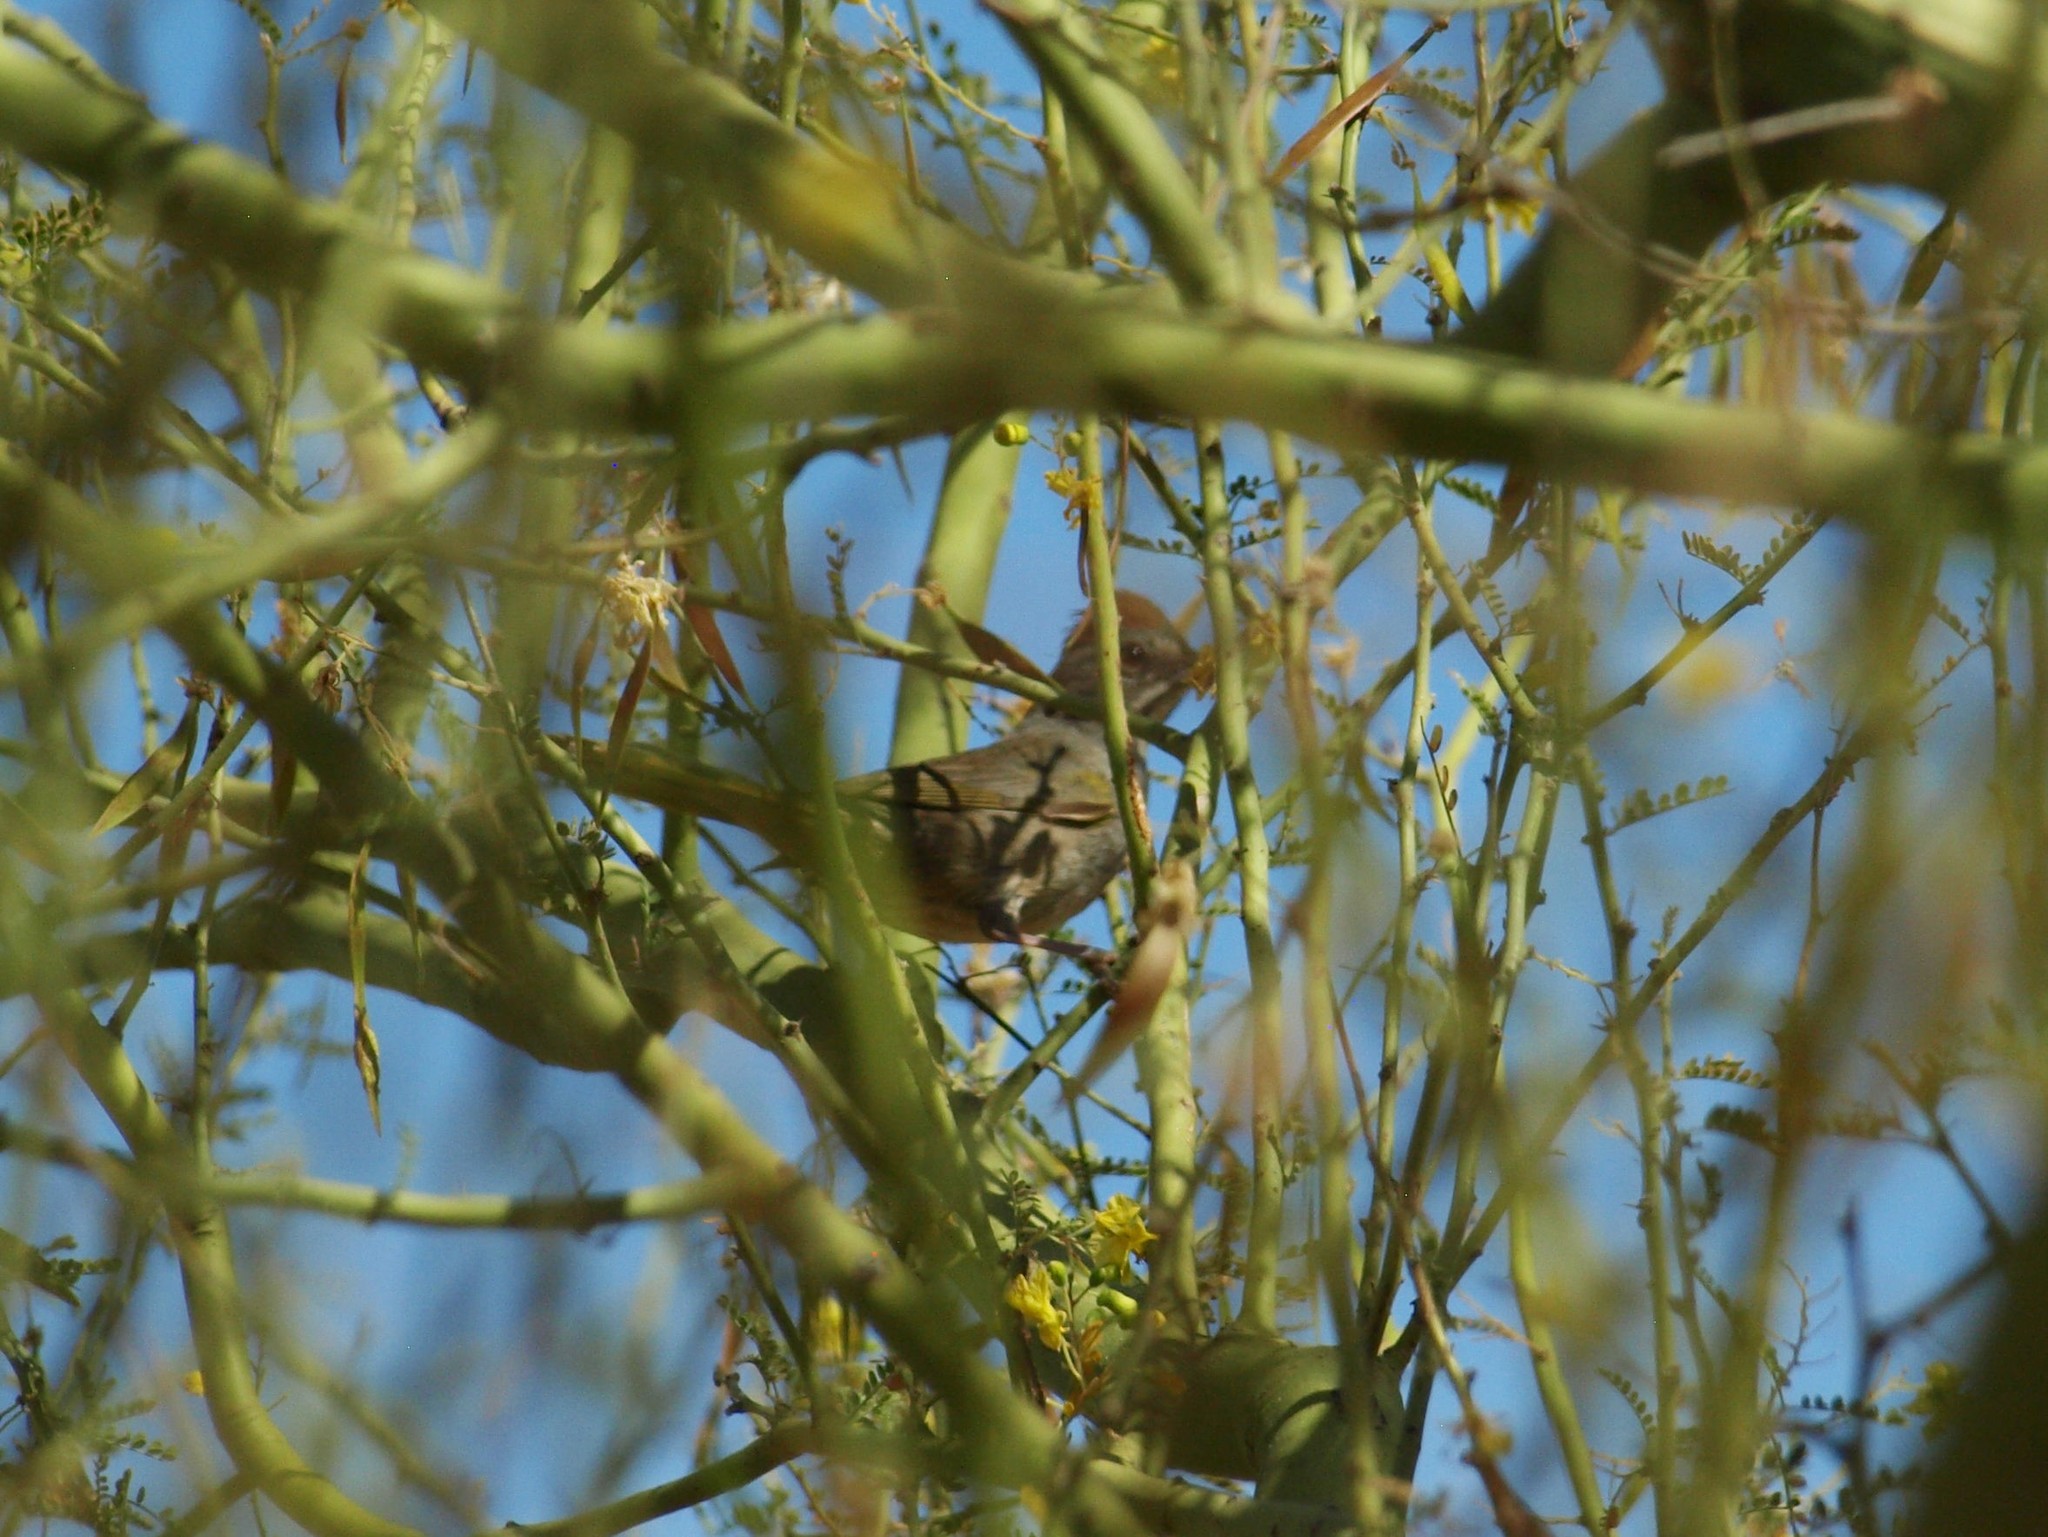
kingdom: Animalia
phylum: Chordata
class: Aves
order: Passeriformes
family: Passerellidae
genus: Pipilo
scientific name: Pipilo chlorurus
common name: Green-tailed towhee
